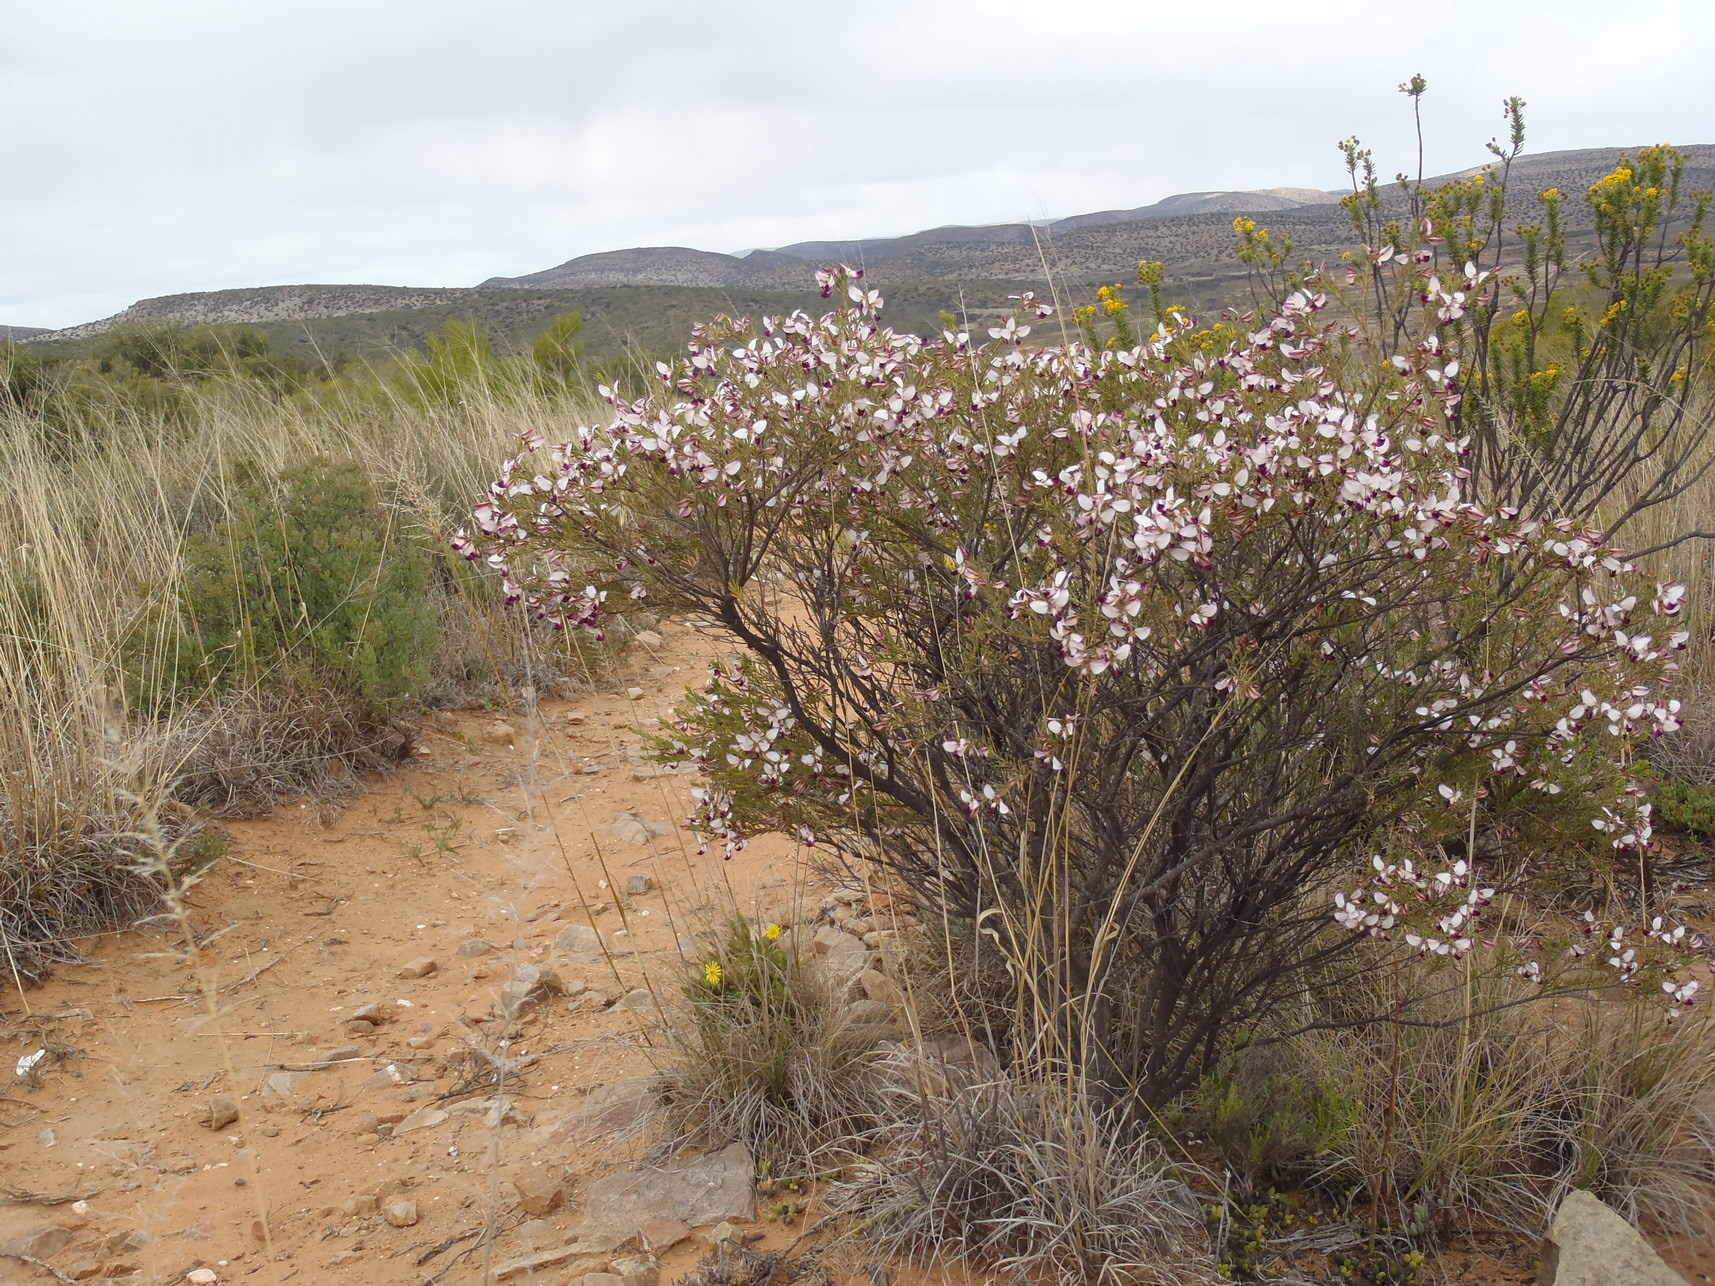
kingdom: Plantae
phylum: Tracheophyta
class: Magnoliopsida
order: Fabales
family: Polygalaceae
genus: Polygala
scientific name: Polygala myrtifolia
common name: Myrtle-leaf milkwort
